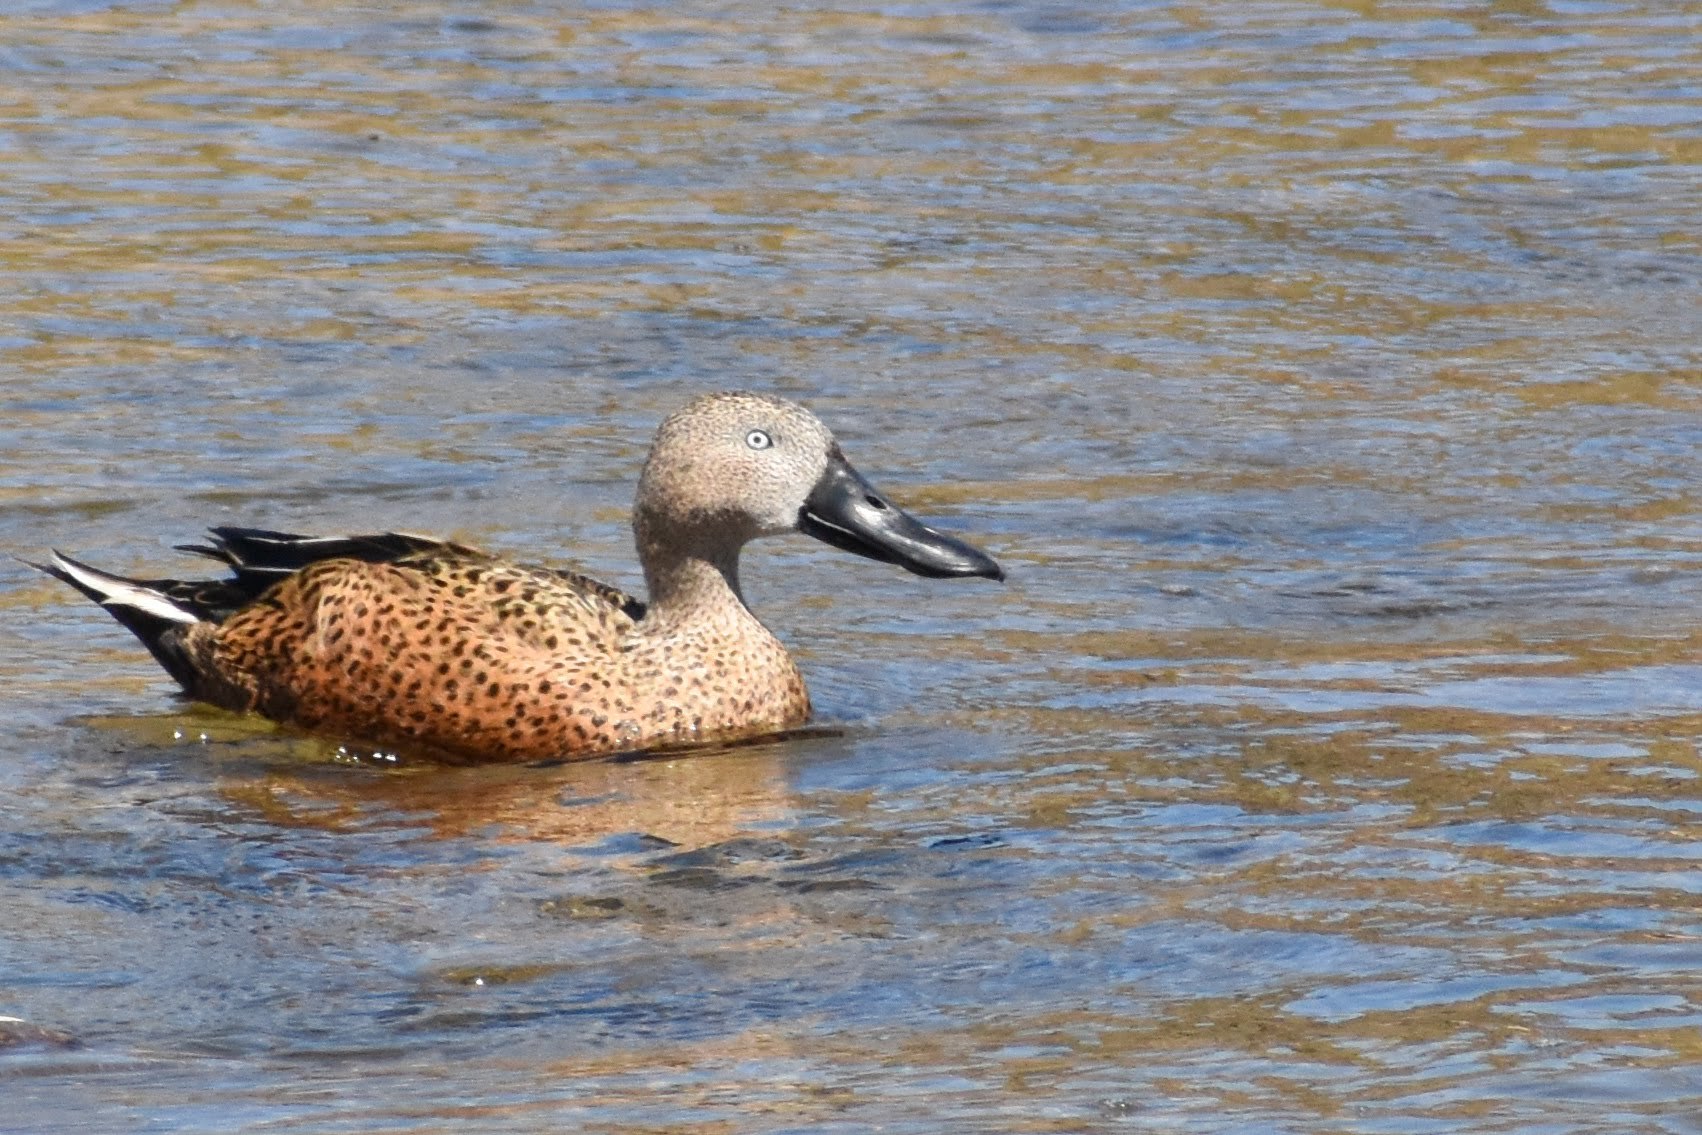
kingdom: Animalia
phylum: Chordata
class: Aves
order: Anseriformes
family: Anatidae
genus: Spatula
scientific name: Spatula platalea
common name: Red shoveler
